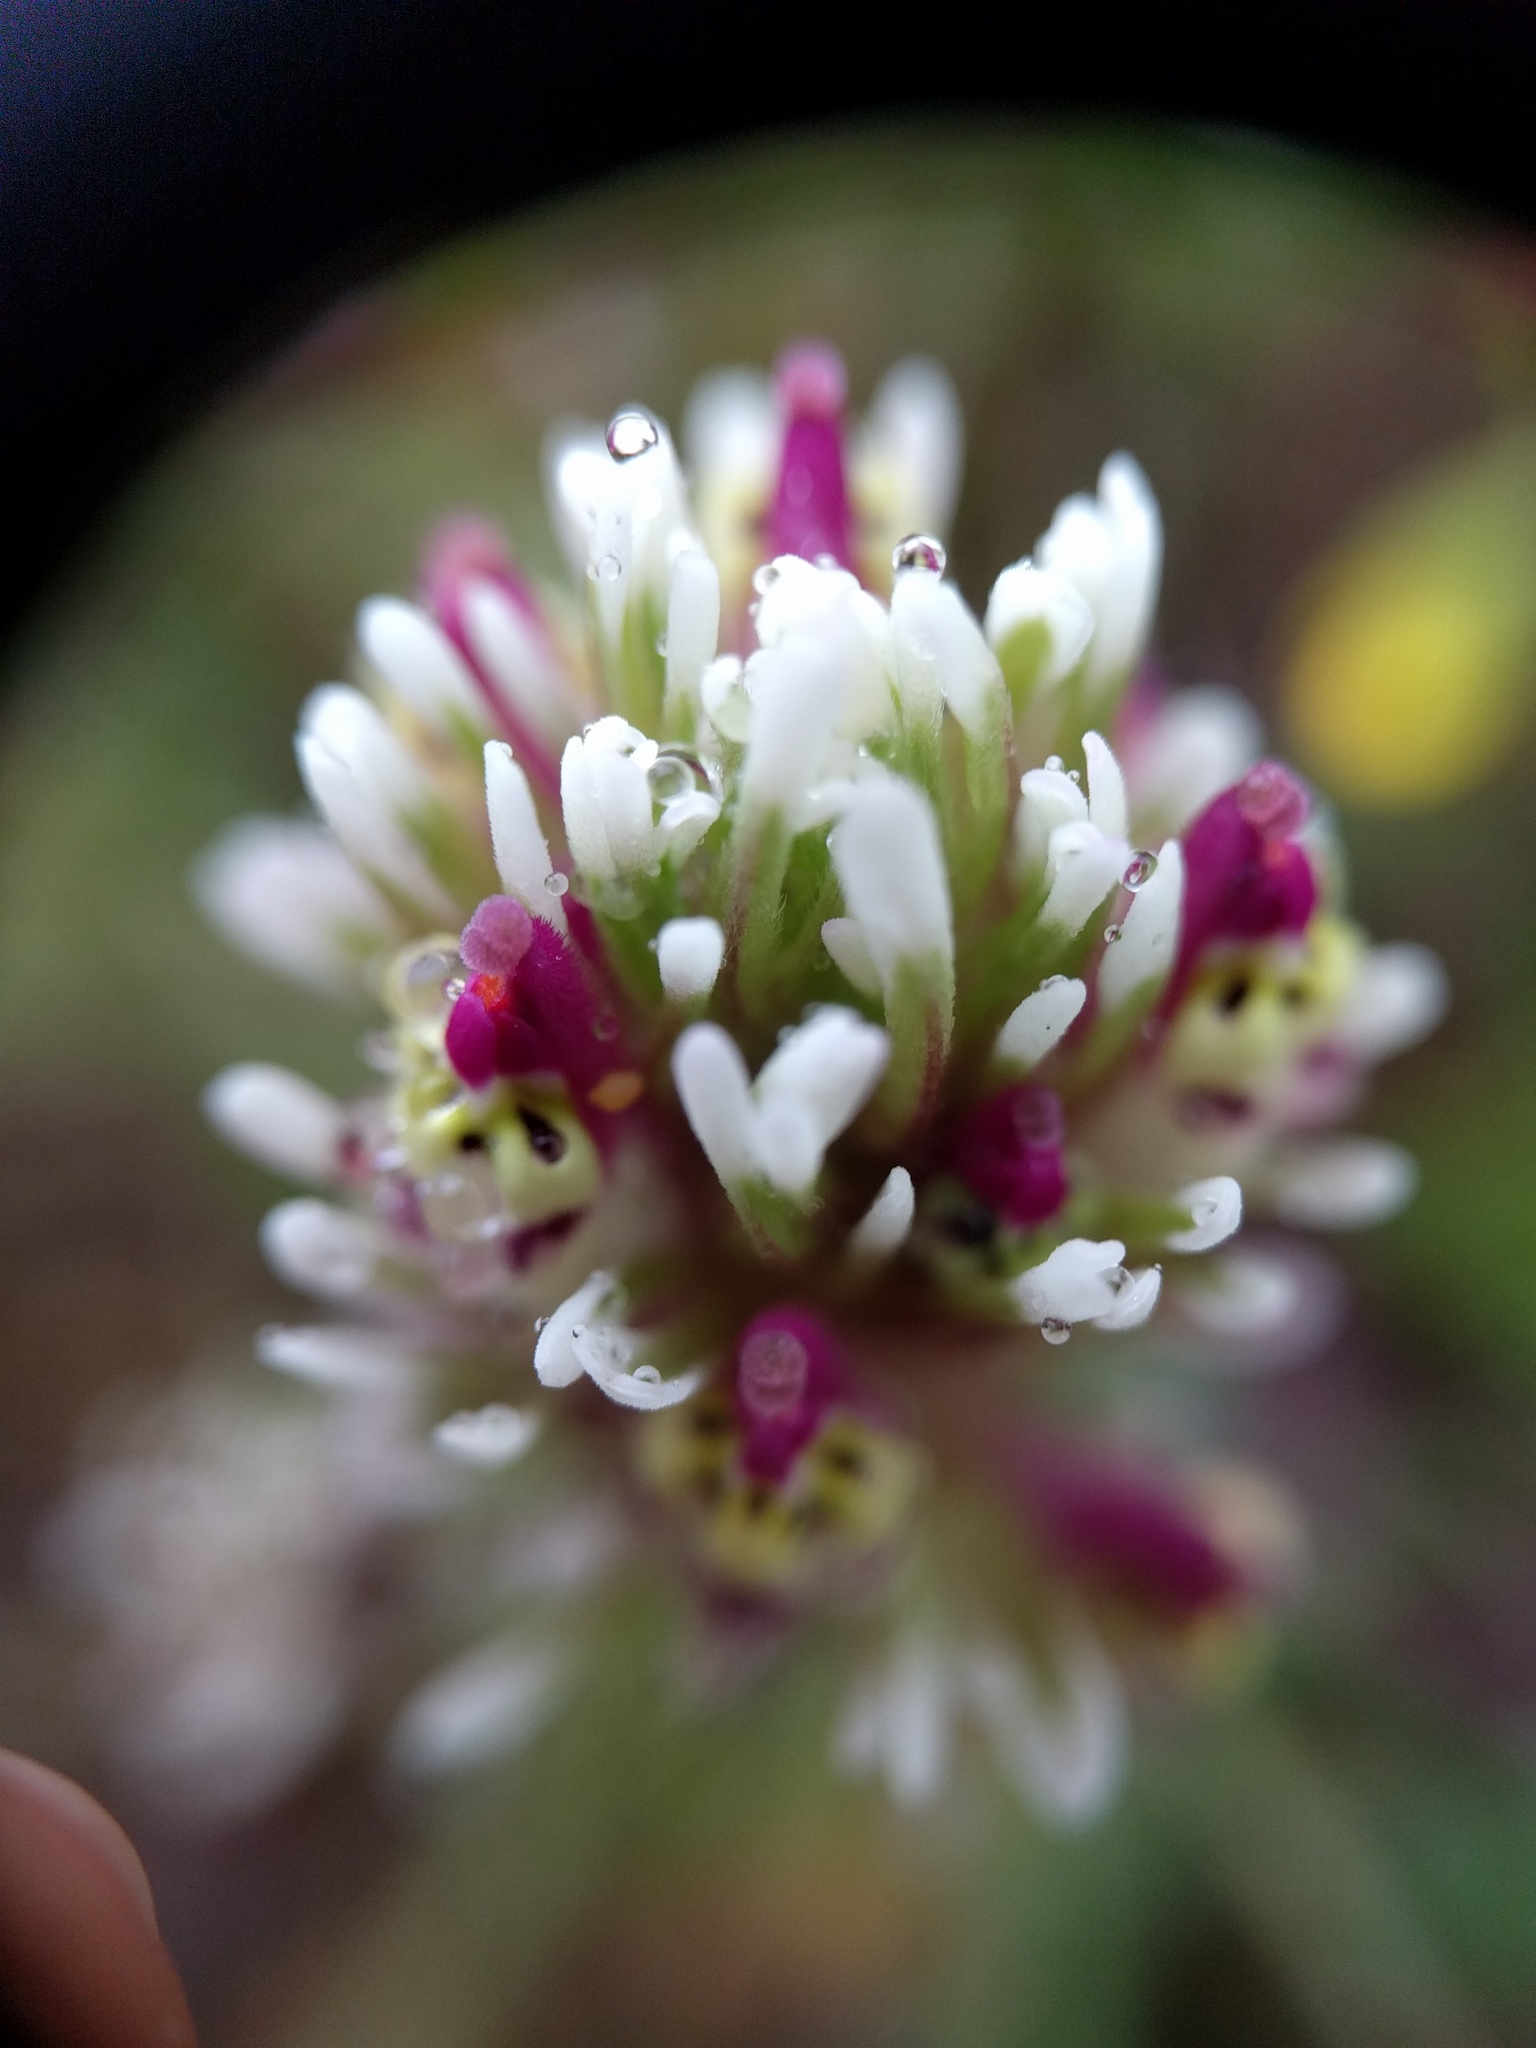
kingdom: Plantae
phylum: Tracheophyta
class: Magnoliopsida
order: Lamiales
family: Orobanchaceae
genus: Castilleja
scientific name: Castilleja densiflora
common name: Dense-flower indian paintbrush
